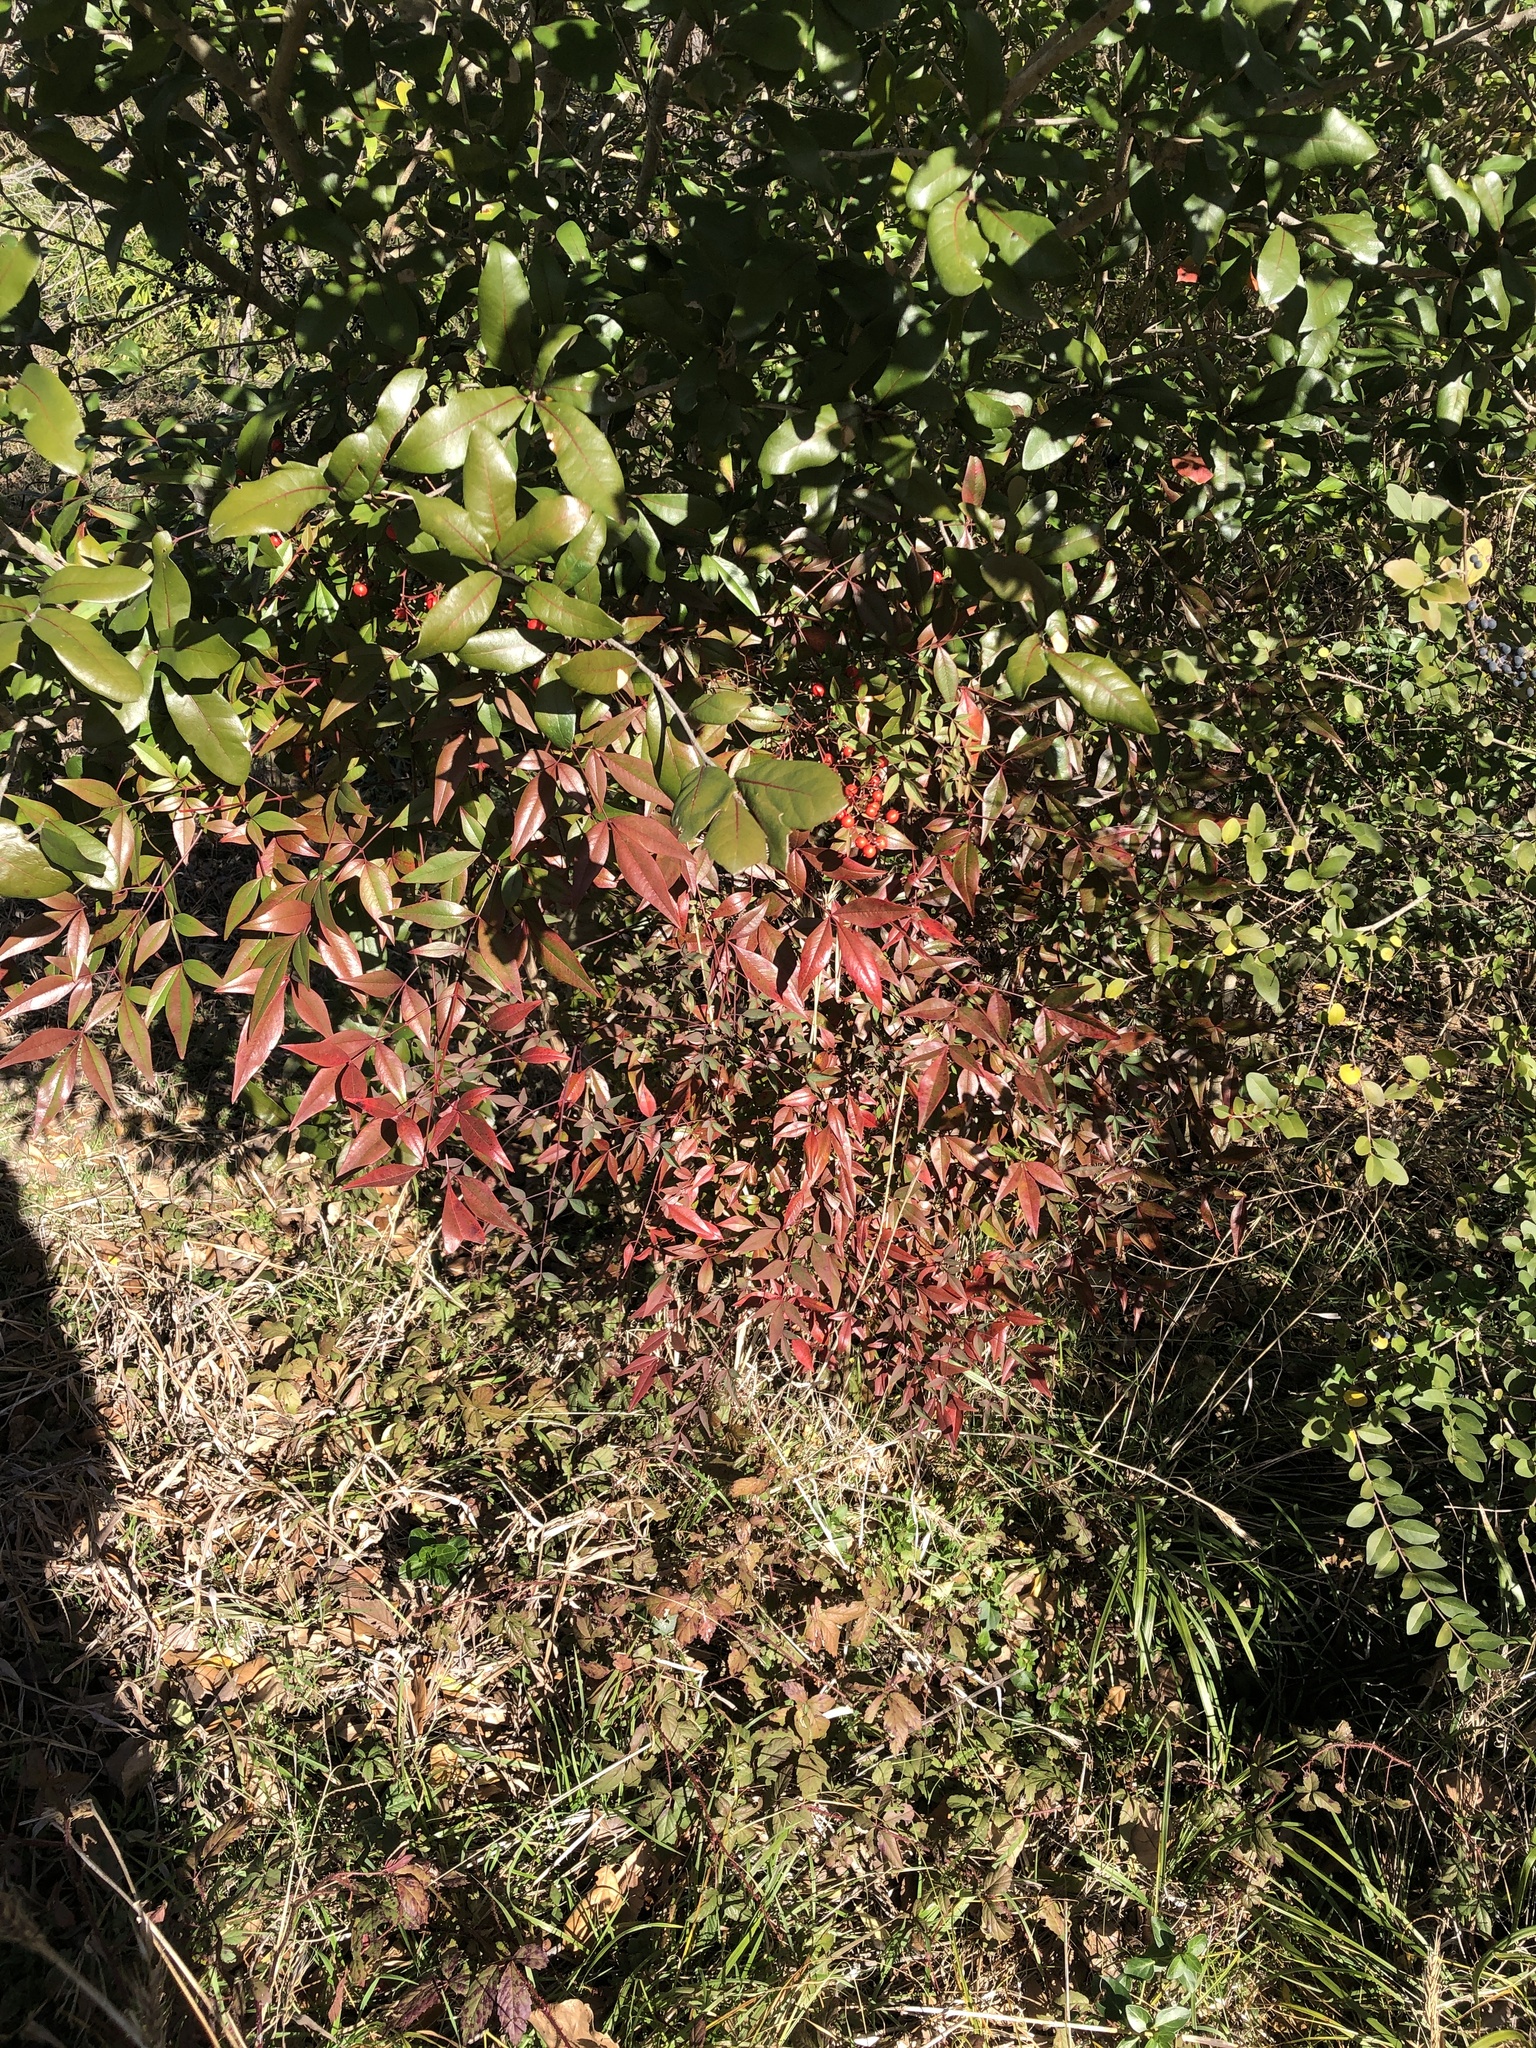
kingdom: Plantae
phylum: Tracheophyta
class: Magnoliopsida
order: Ranunculales
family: Berberidaceae
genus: Nandina
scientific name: Nandina domestica
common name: Sacred bamboo
